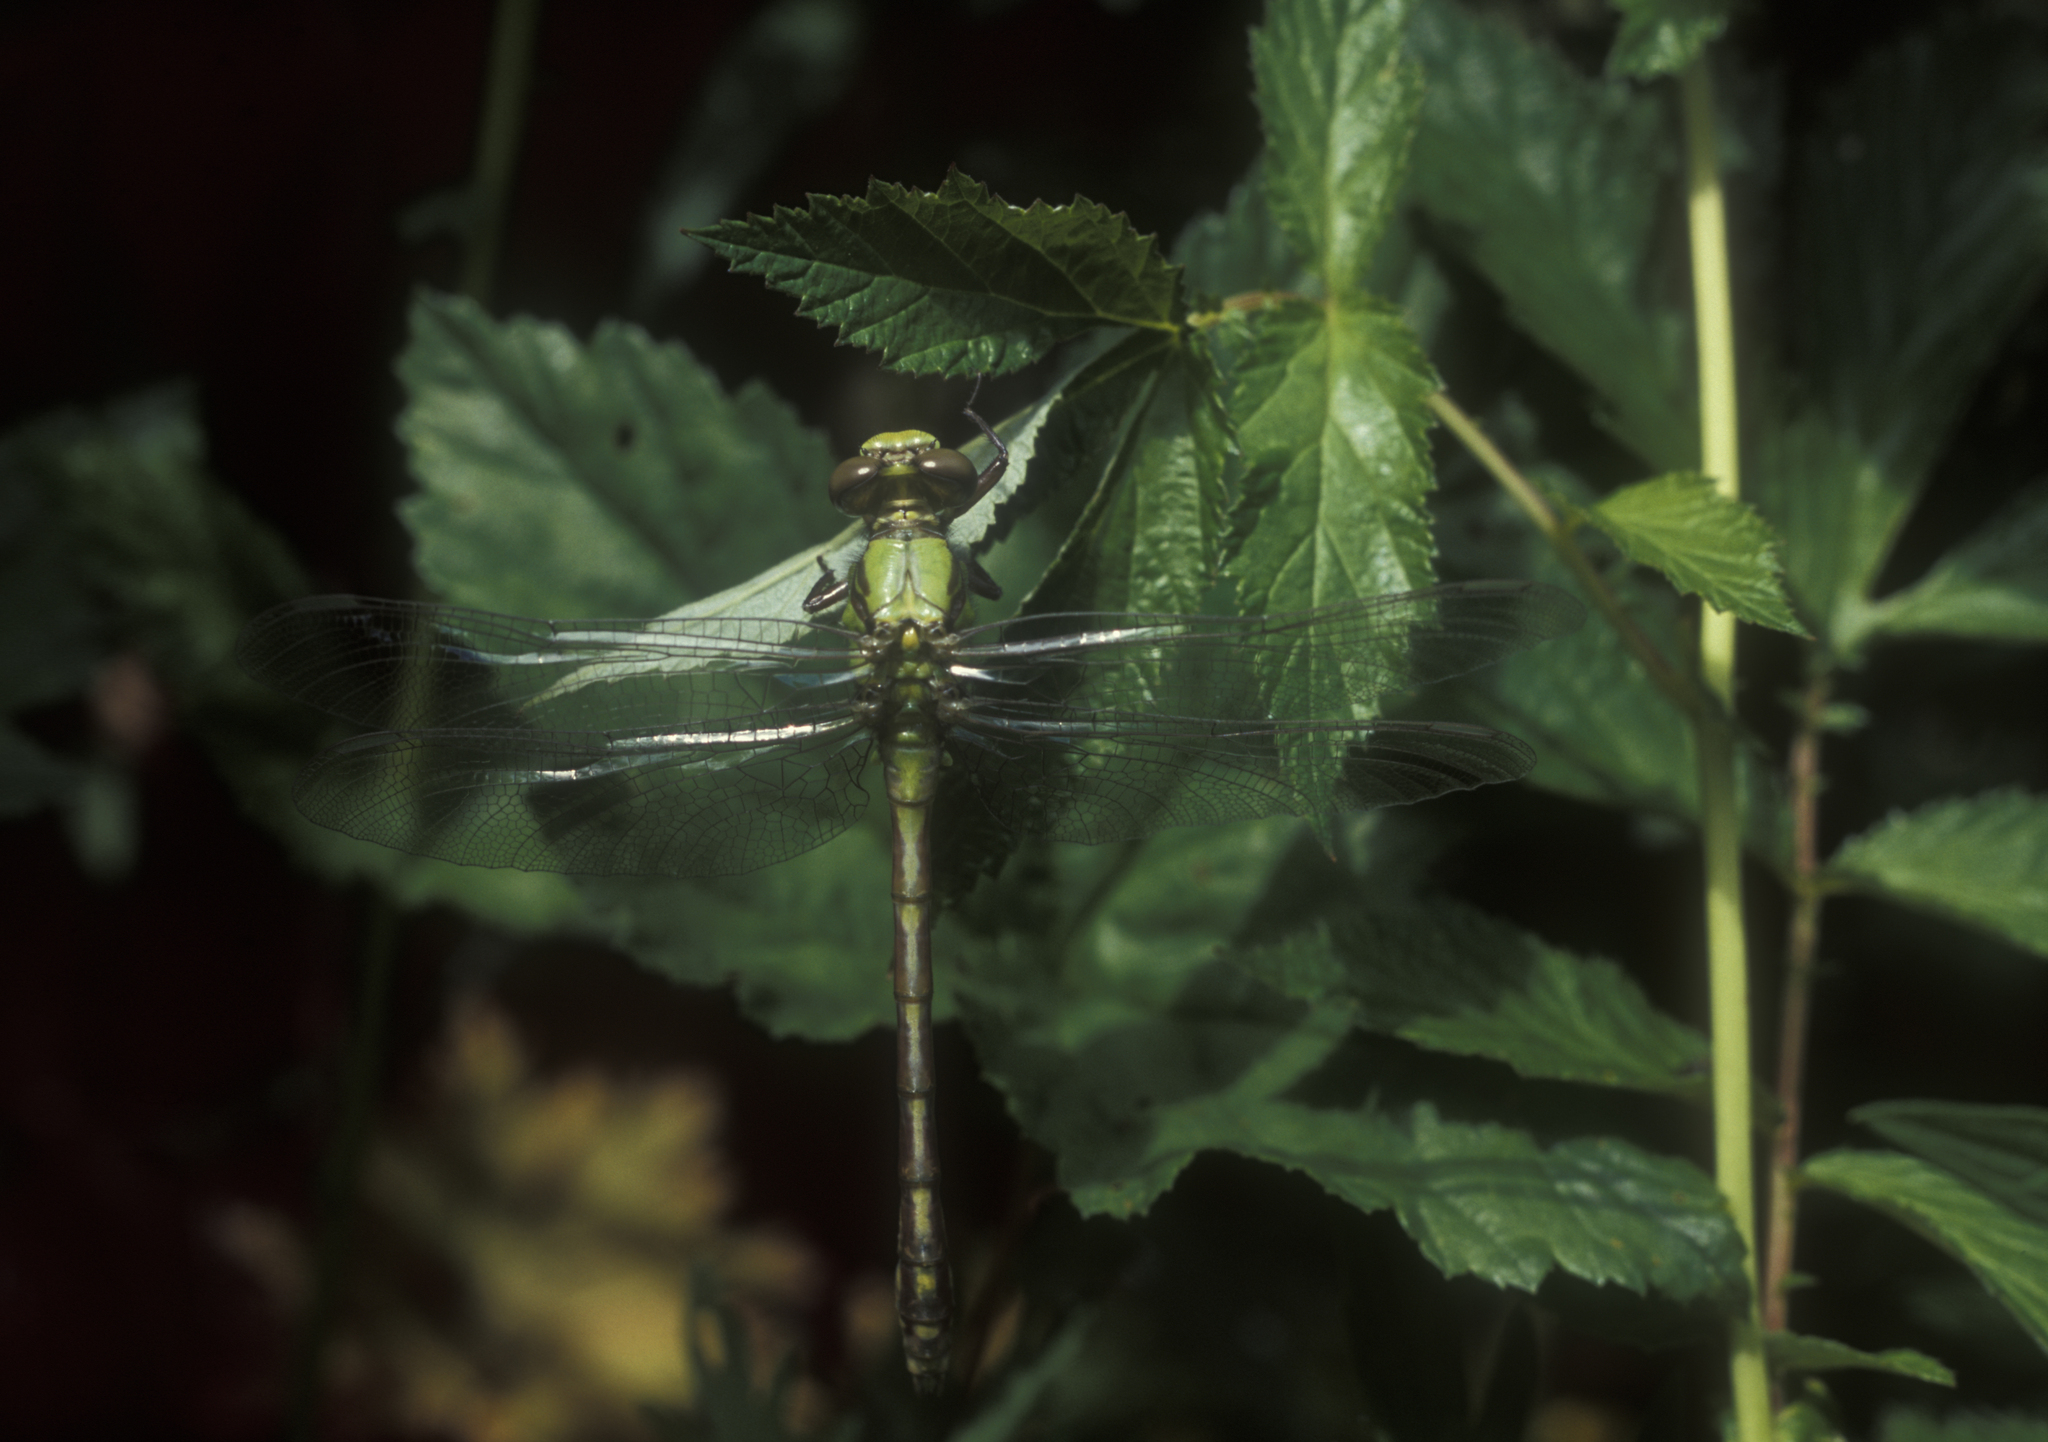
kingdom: Plantae
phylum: Tracheophyta
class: Magnoliopsida
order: Rosales
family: Rosaceae
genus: Filipendula
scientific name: Filipendula ulmaria
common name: Meadowsweet
